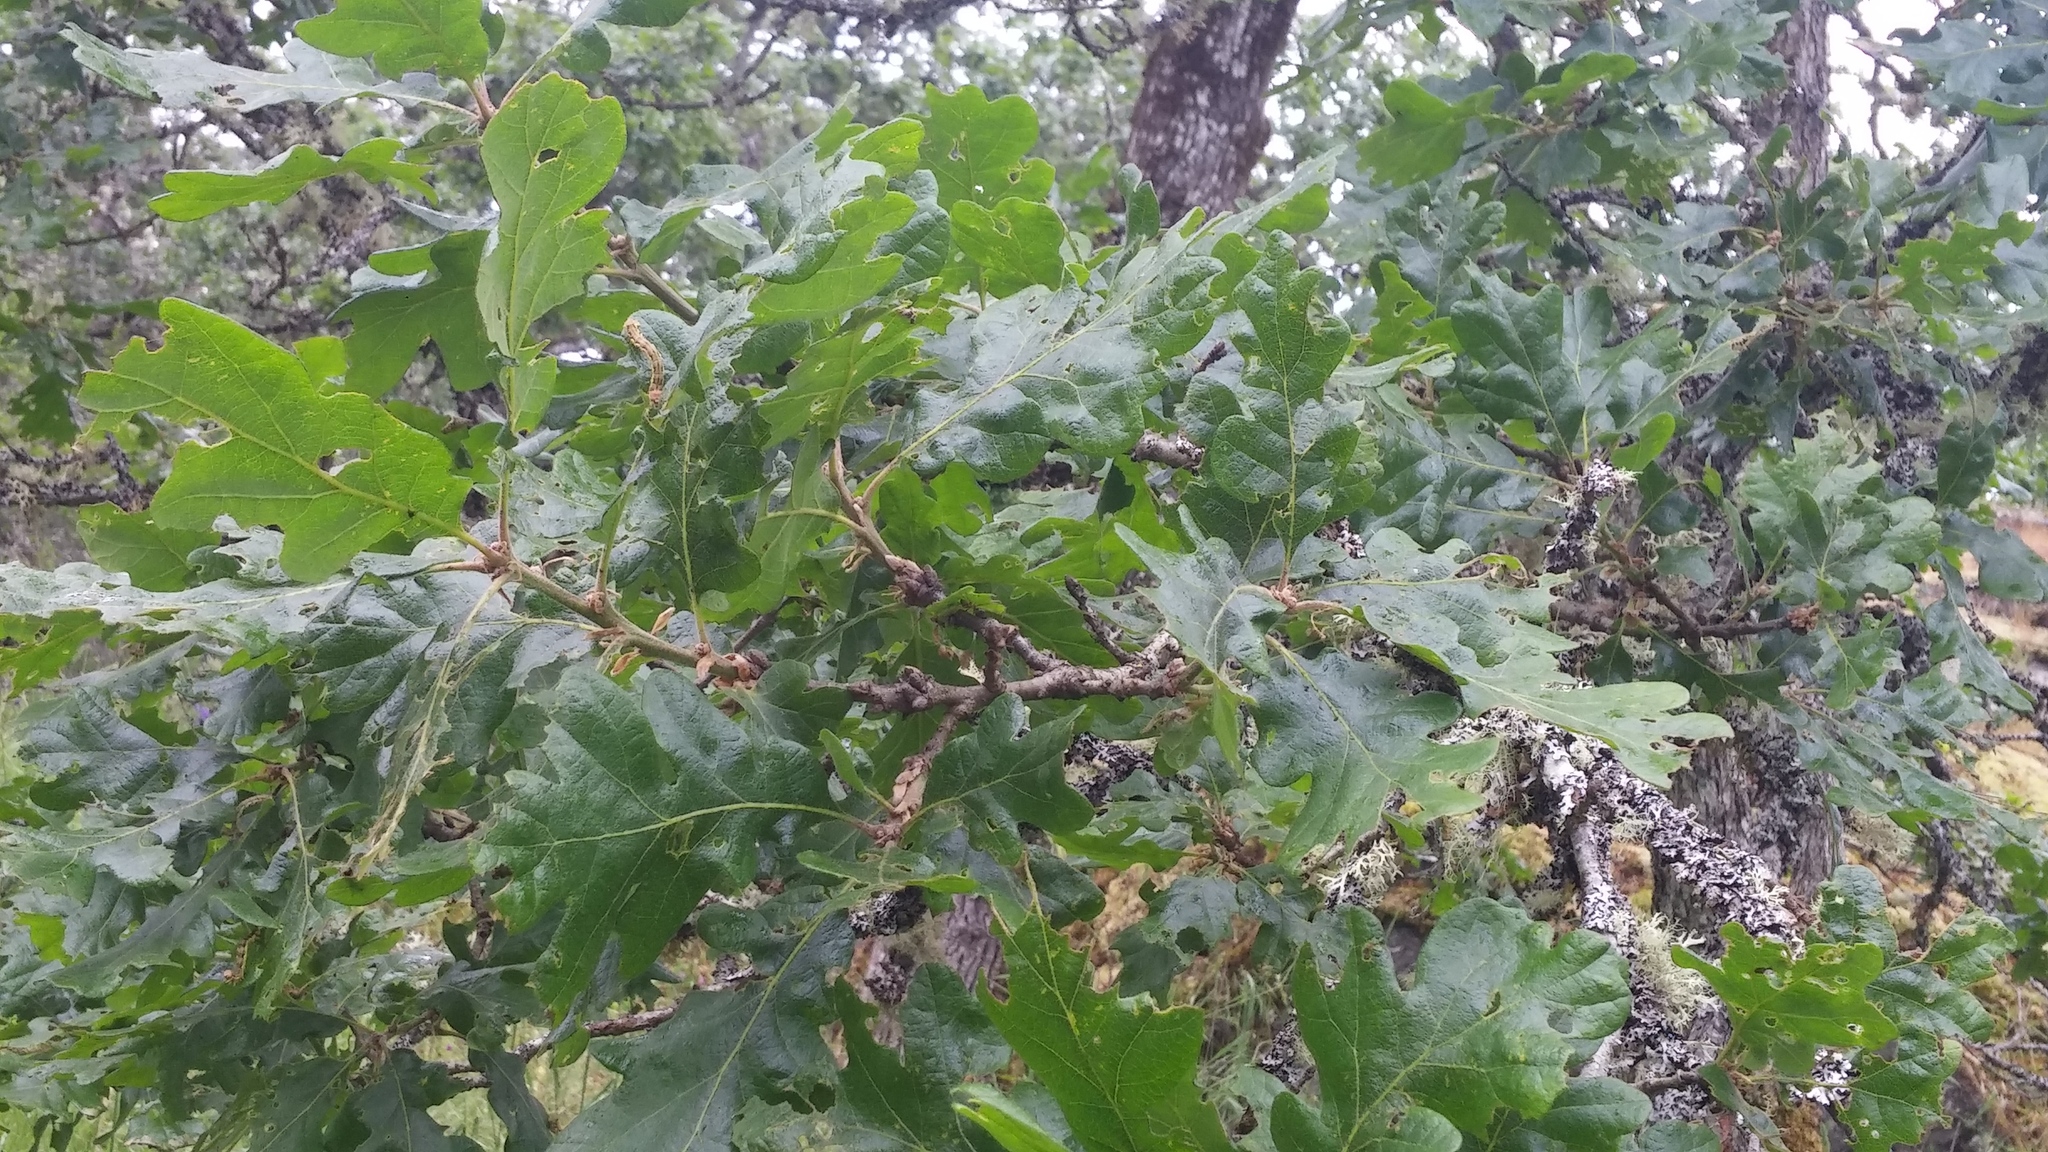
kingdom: Plantae
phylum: Tracheophyta
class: Magnoliopsida
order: Fagales
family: Fagaceae
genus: Quercus
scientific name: Quercus garryana
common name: Garry oak
